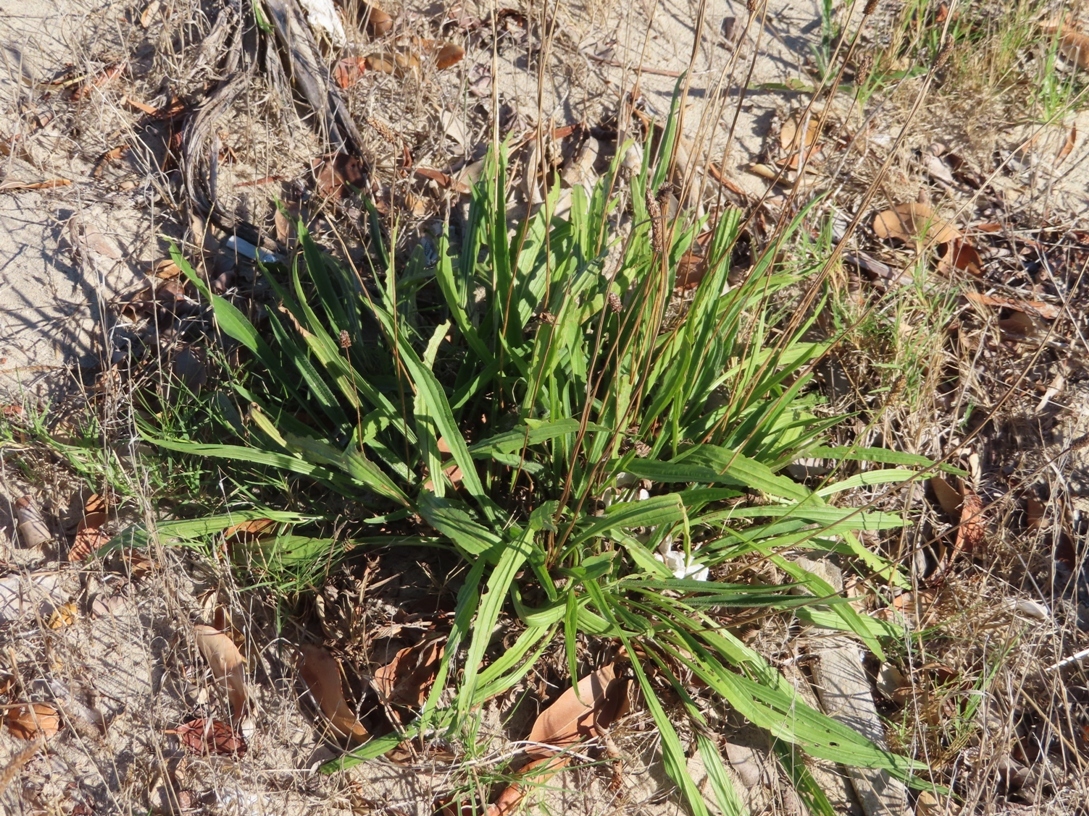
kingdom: Plantae
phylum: Tracheophyta
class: Magnoliopsida
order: Lamiales
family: Plantaginaceae
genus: Plantago
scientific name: Plantago lanceolata
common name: Ribwort plantain
